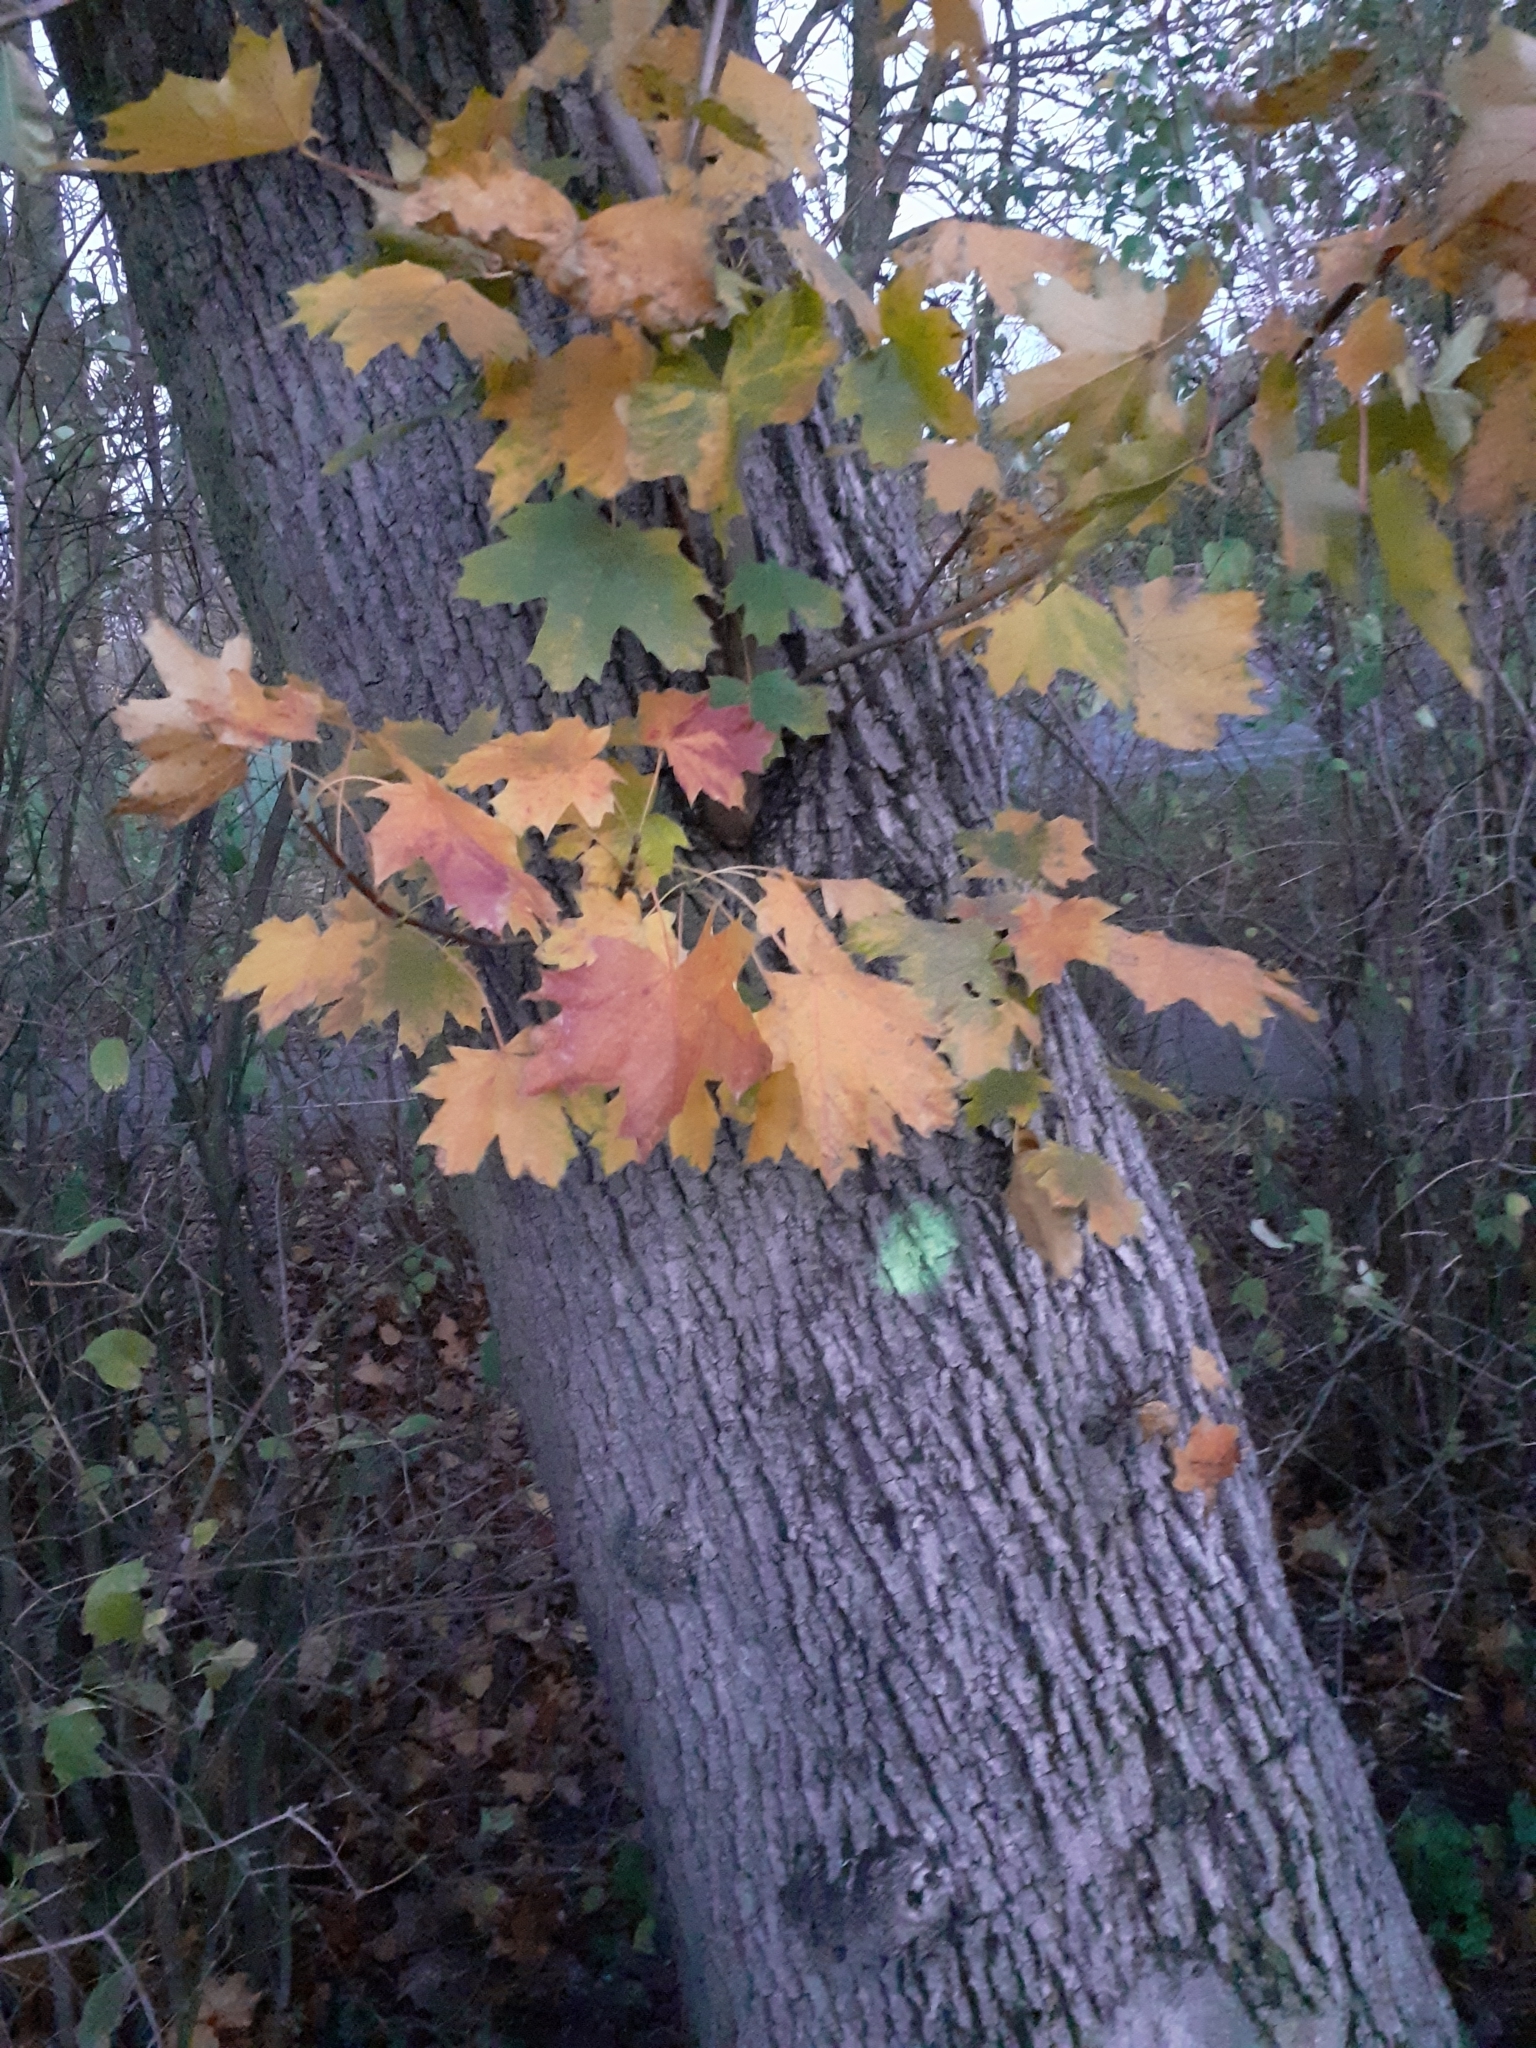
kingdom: Plantae
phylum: Tracheophyta
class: Magnoliopsida
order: Sapindales
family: Sapindaceae
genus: Acer
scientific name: Acer platanoides
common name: Norway maple
